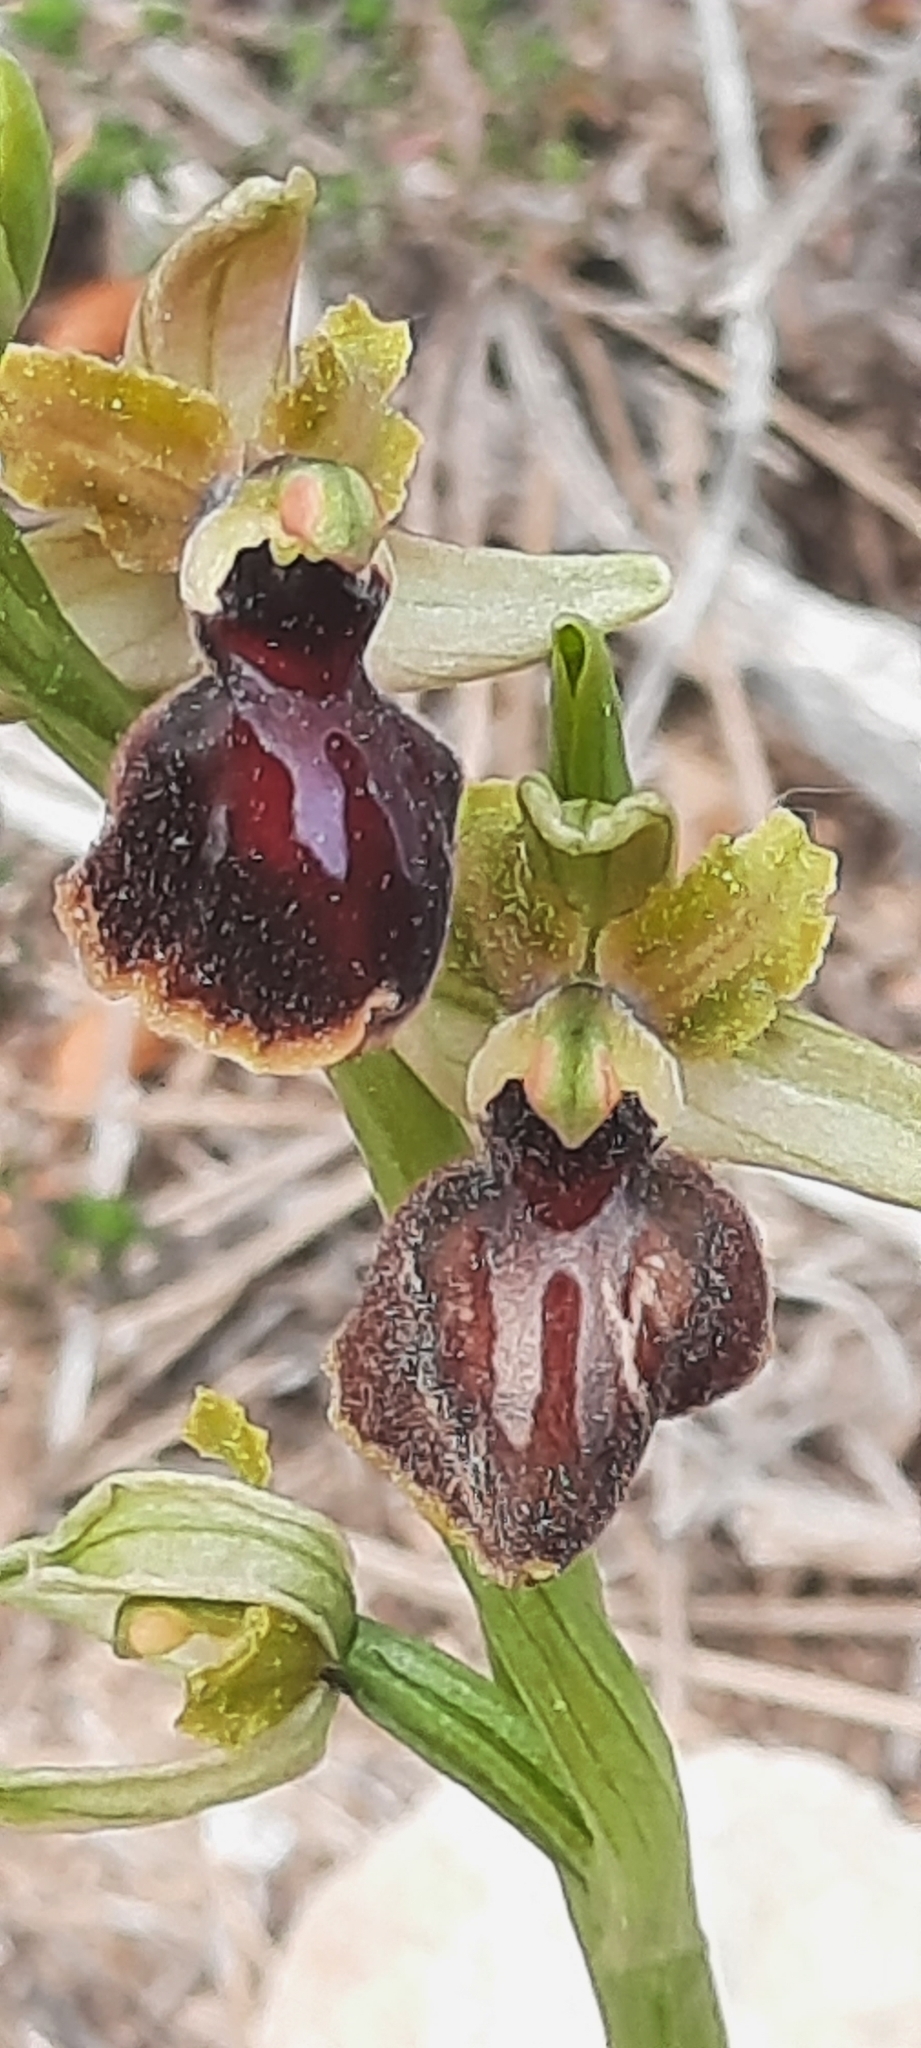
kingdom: Plantae
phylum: Tracheophyta
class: Liliopsida
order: Asparagales
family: Orchidaceae
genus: Ophrys
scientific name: Ophrys sphegodes
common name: Early spider-orchid
